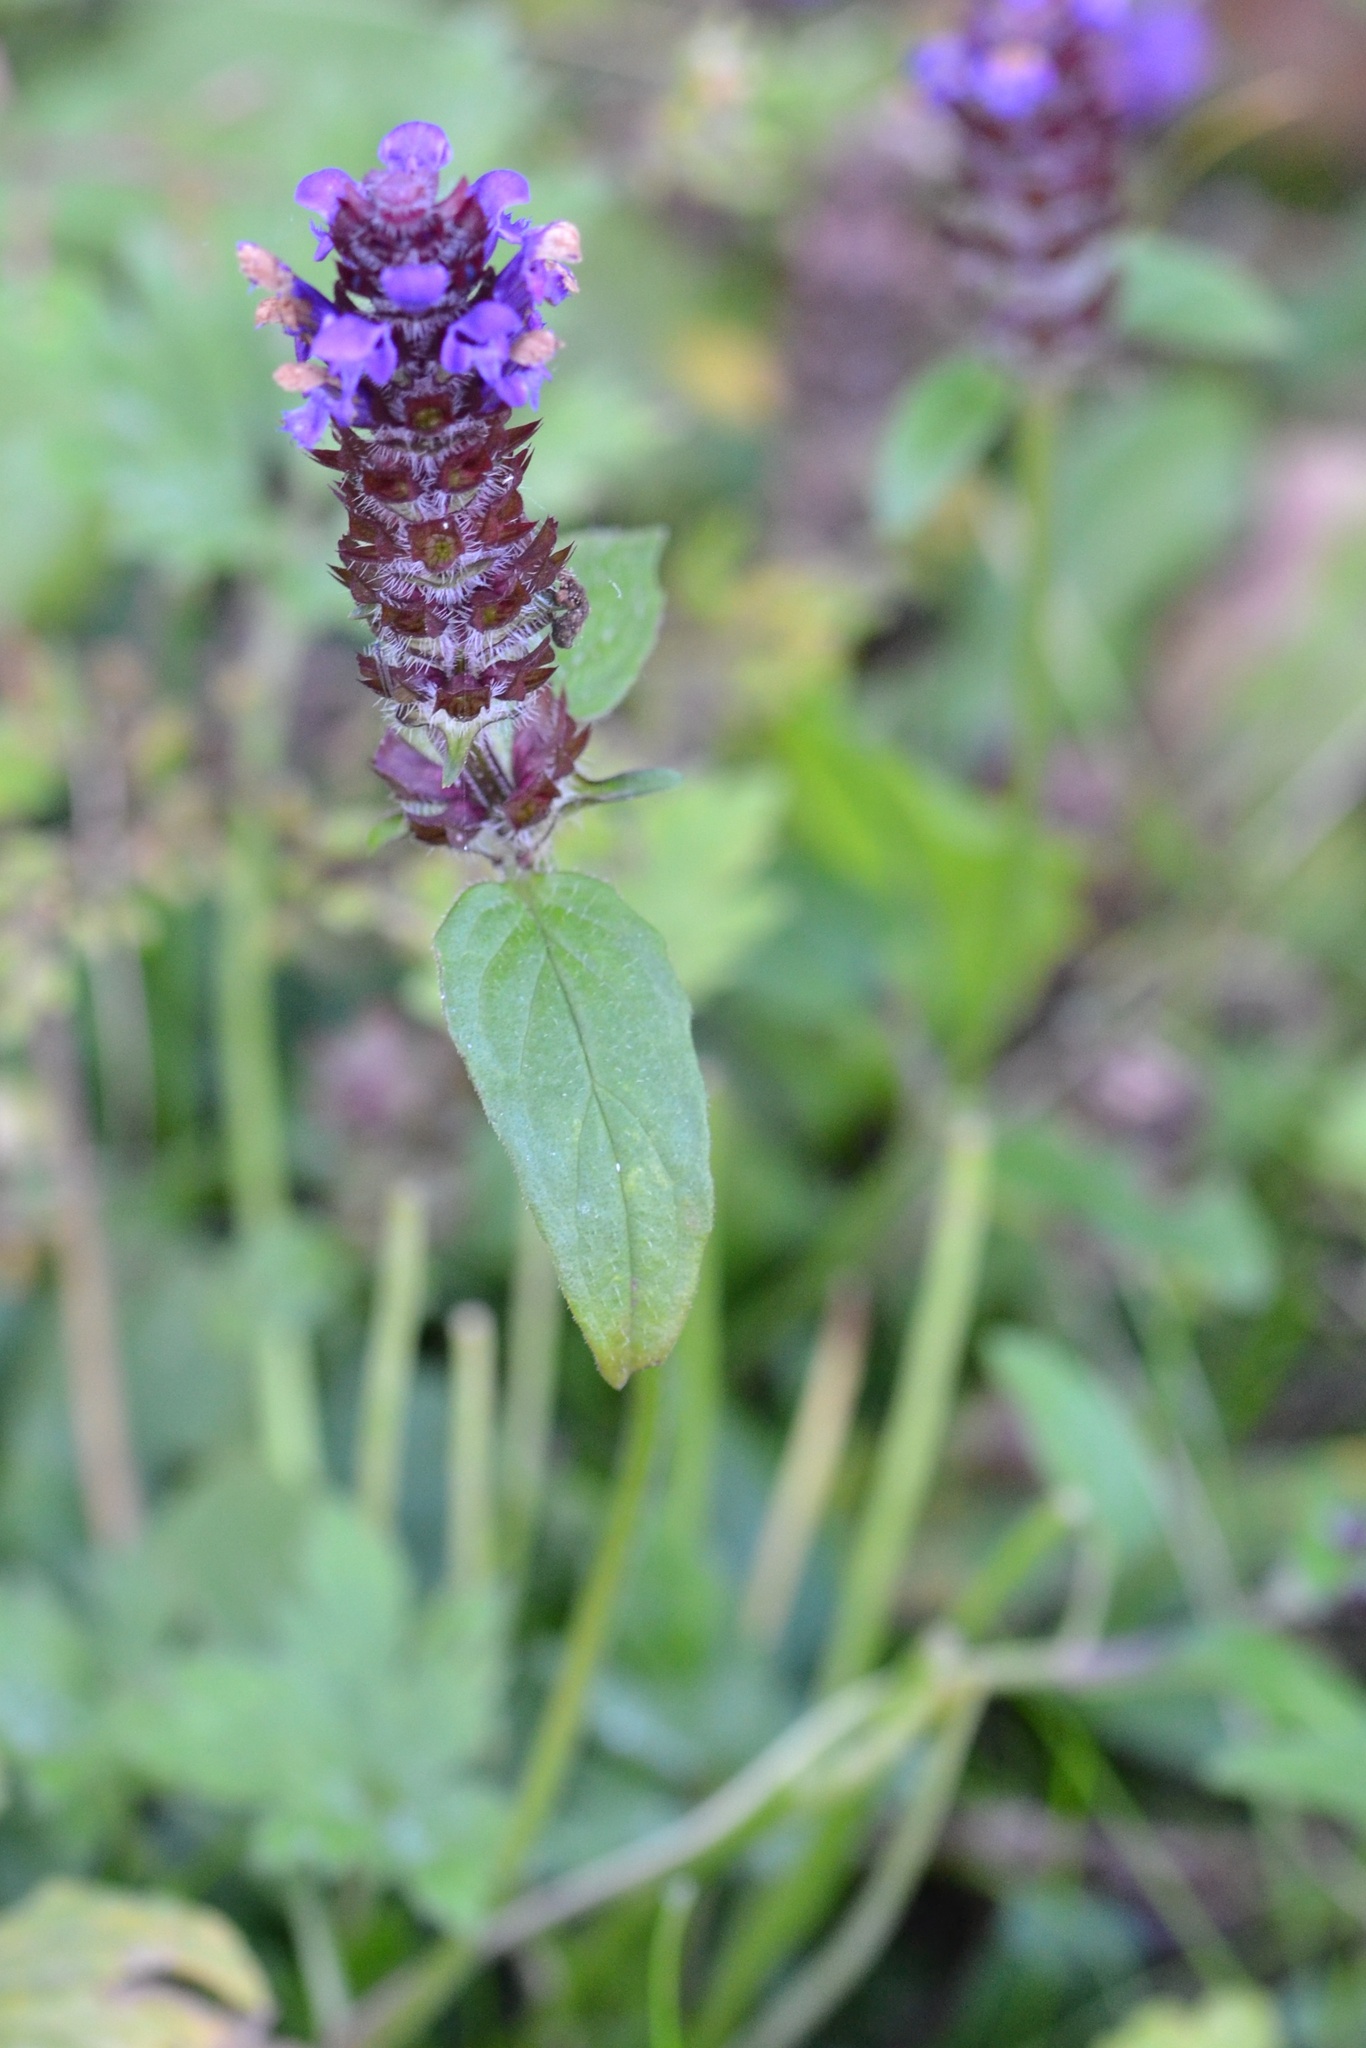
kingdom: Plantae
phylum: Tracheophyta
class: Magnoliopsida
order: Lamiales
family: Lamiaceae
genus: Prunella
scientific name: Prunella vulgaris
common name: Heal-all
